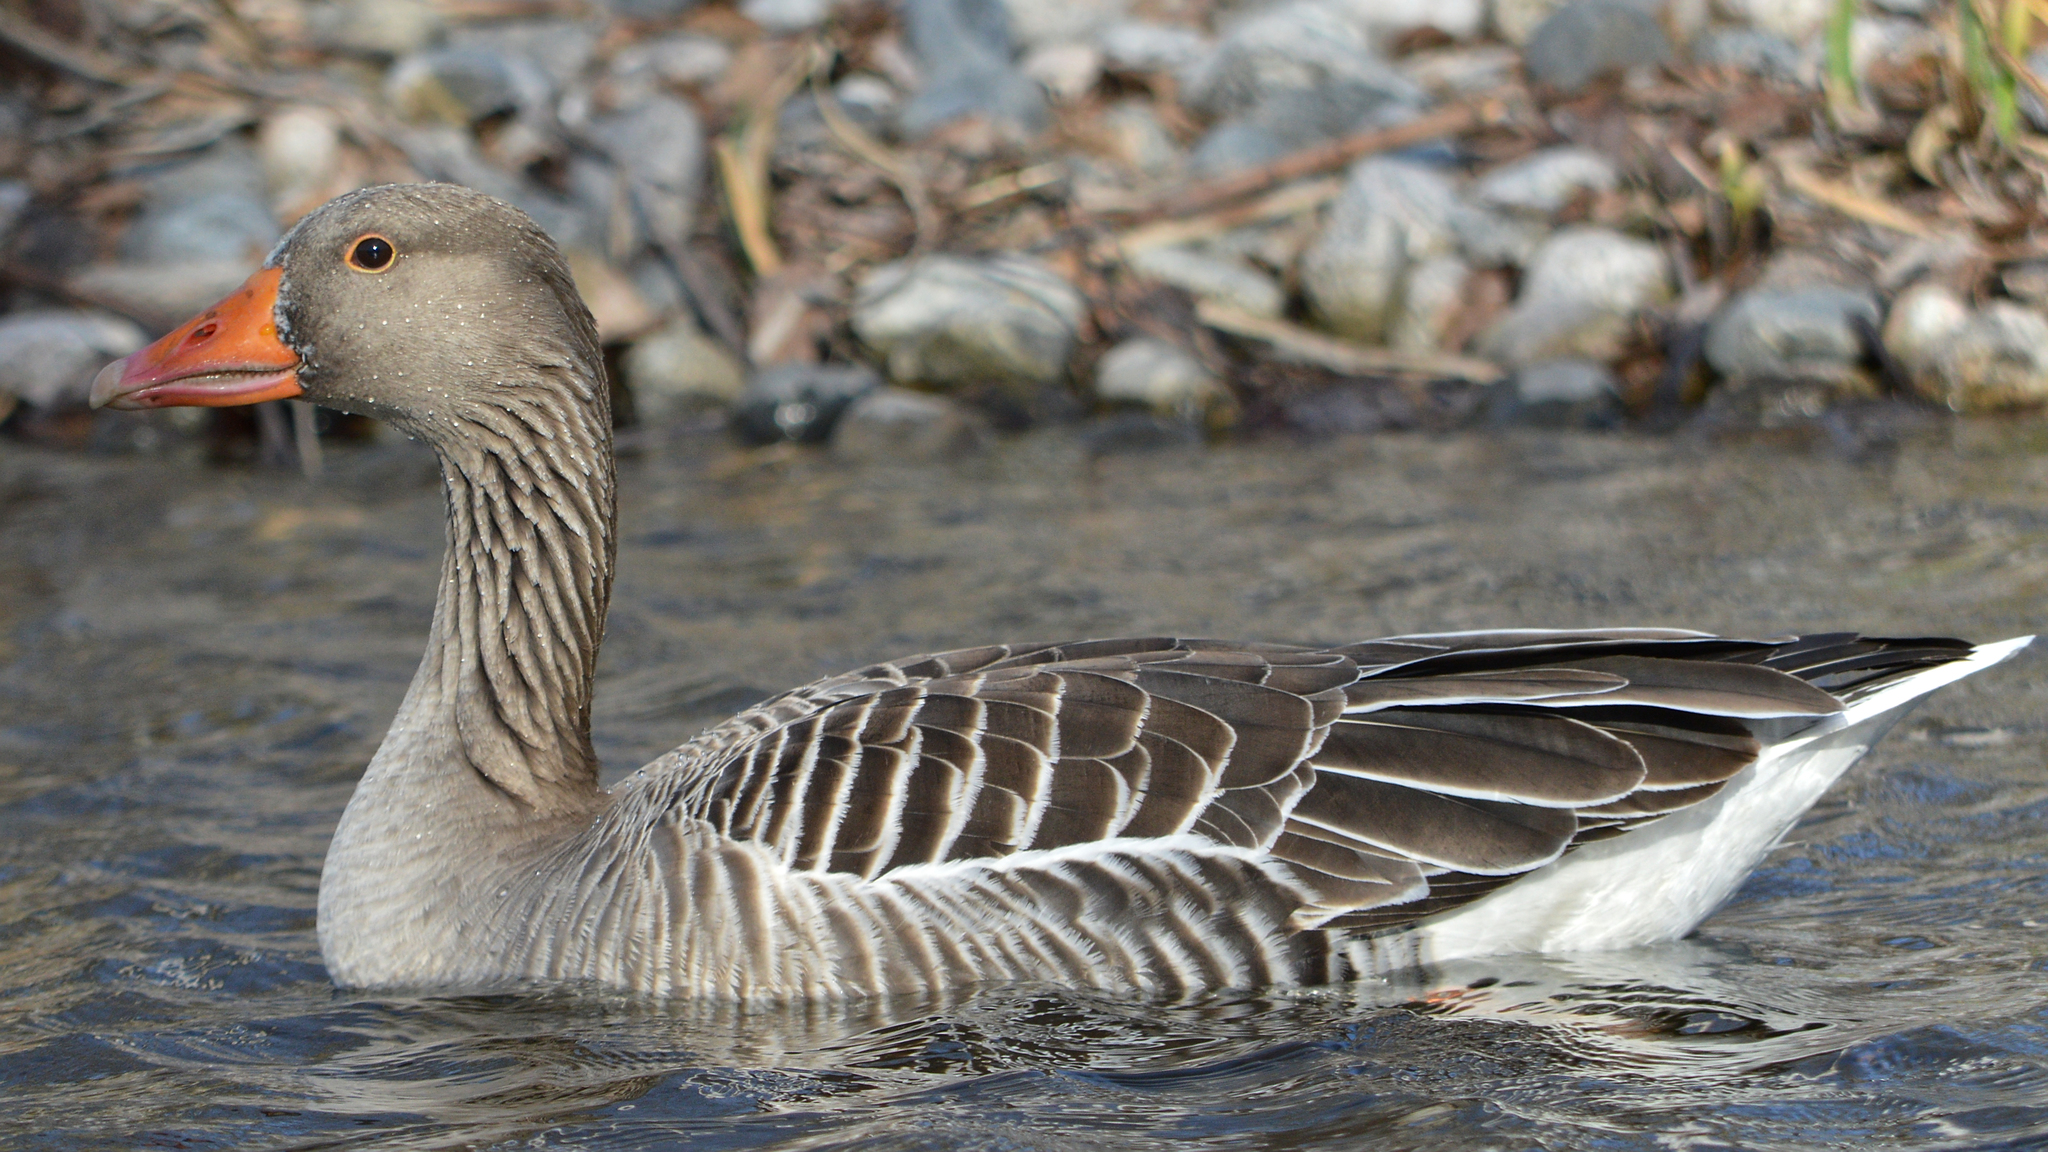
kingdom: Animalia
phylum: Chordata
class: Aves
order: Anseriformes
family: Anatidae
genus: Anser
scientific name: Anser anser
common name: Greylag goose
